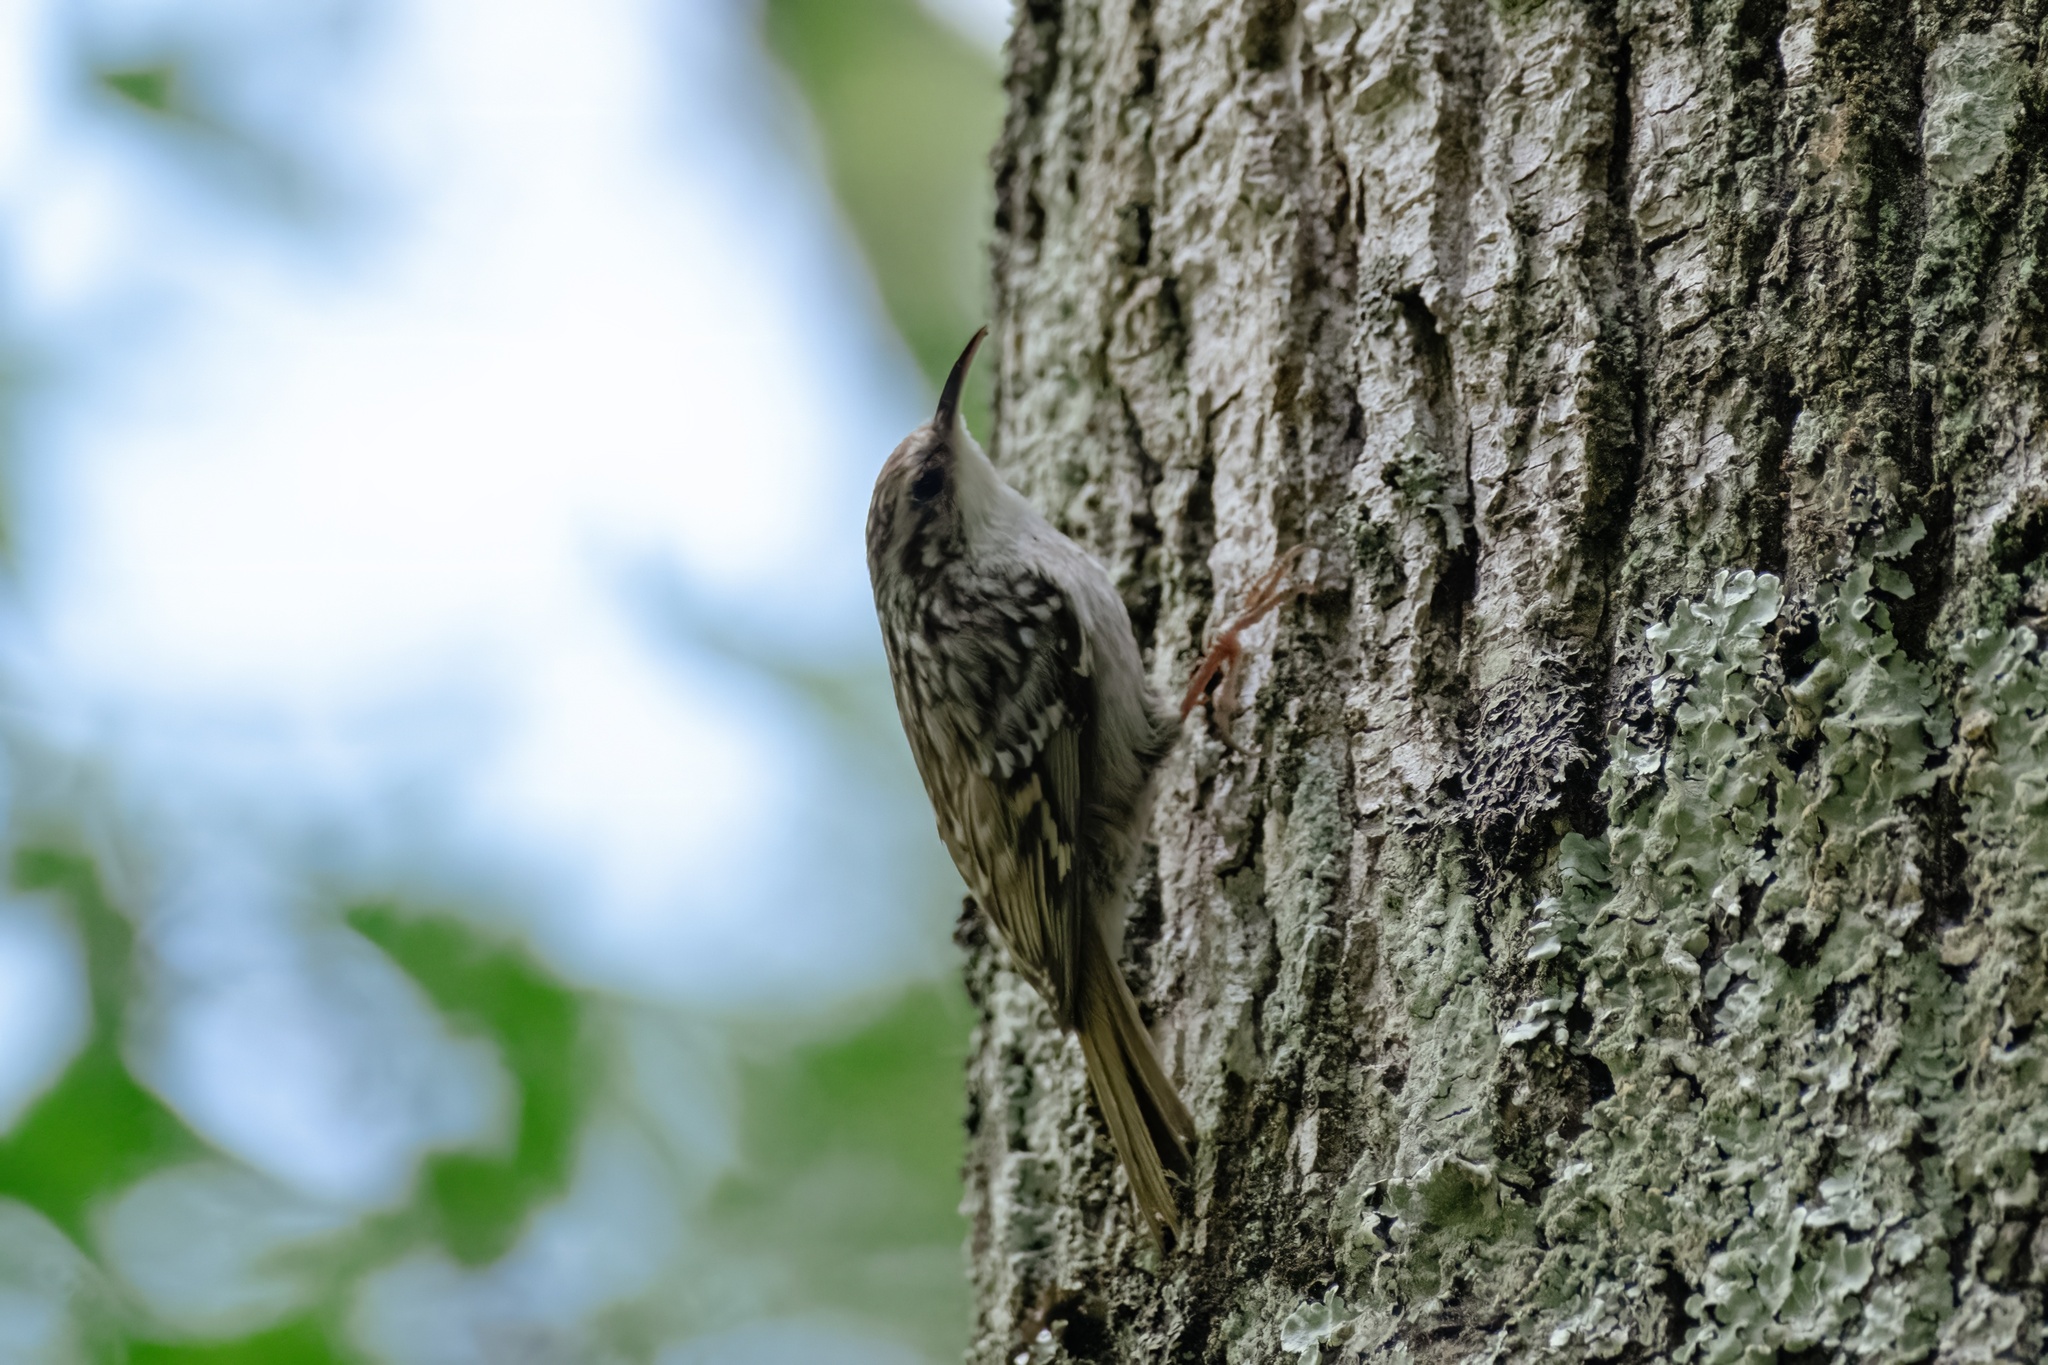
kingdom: Animalia
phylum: Chordata
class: Aves
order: Passeriformes
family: Certhiidae
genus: Certhia
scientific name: Certhia brachydactyla
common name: Short-toed treecreeper
